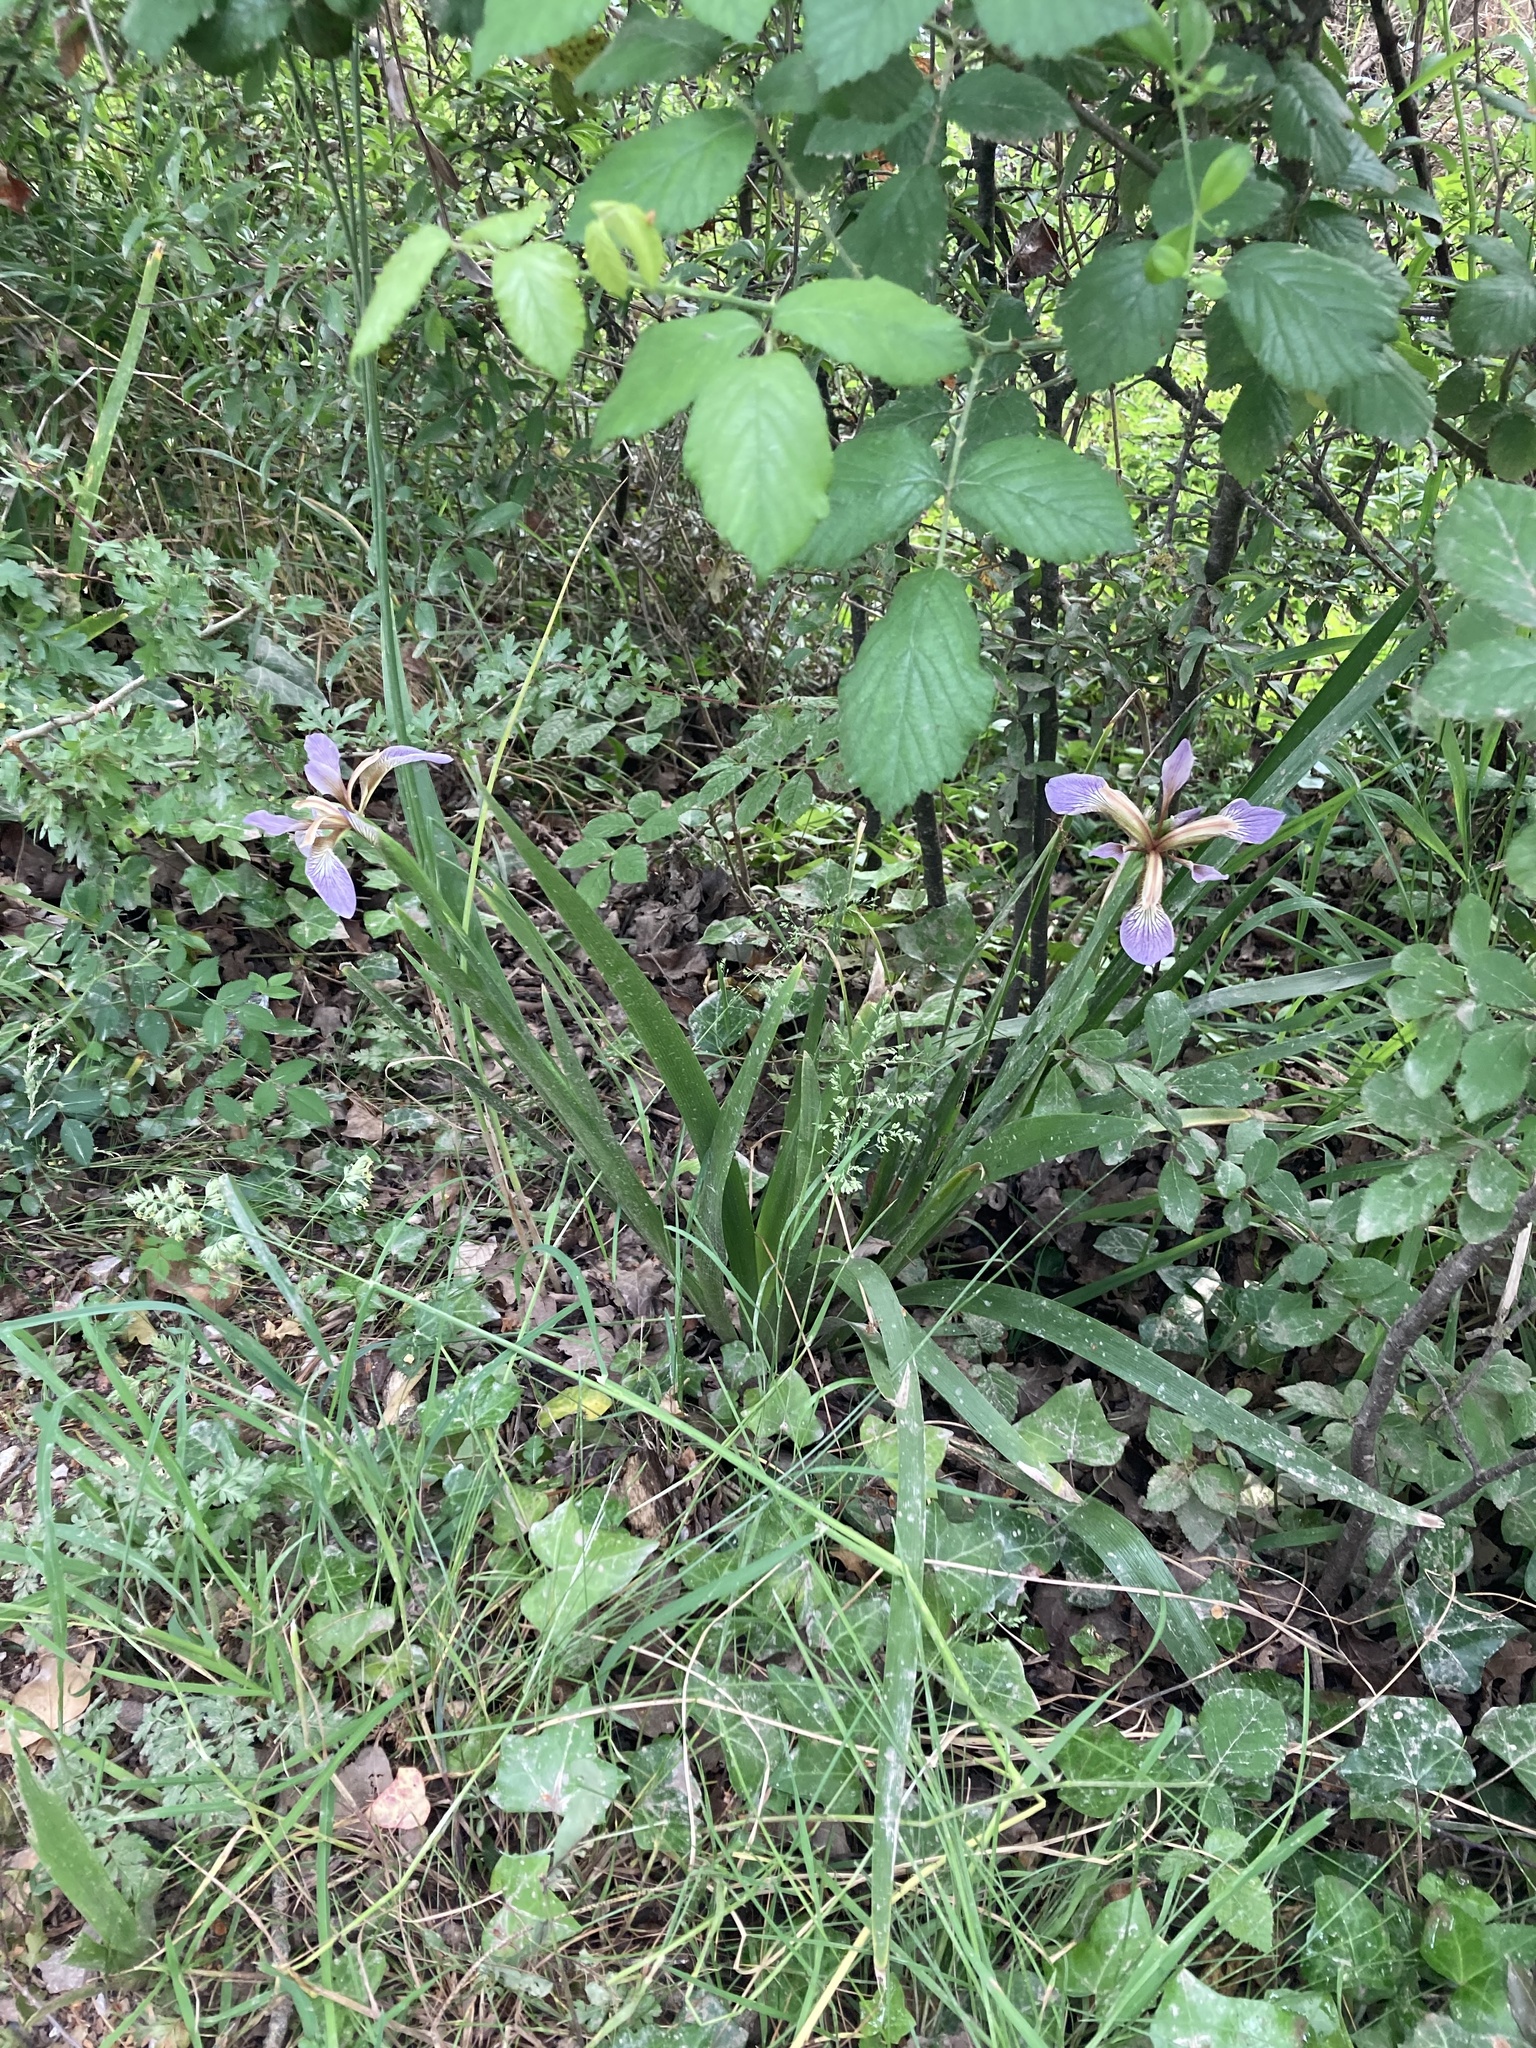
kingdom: Plantae
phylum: Tracheophyta
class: Liliopsida
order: Asparagales
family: Iridaceae
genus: Iris
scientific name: Iris foetidissima
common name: Stinking iris
